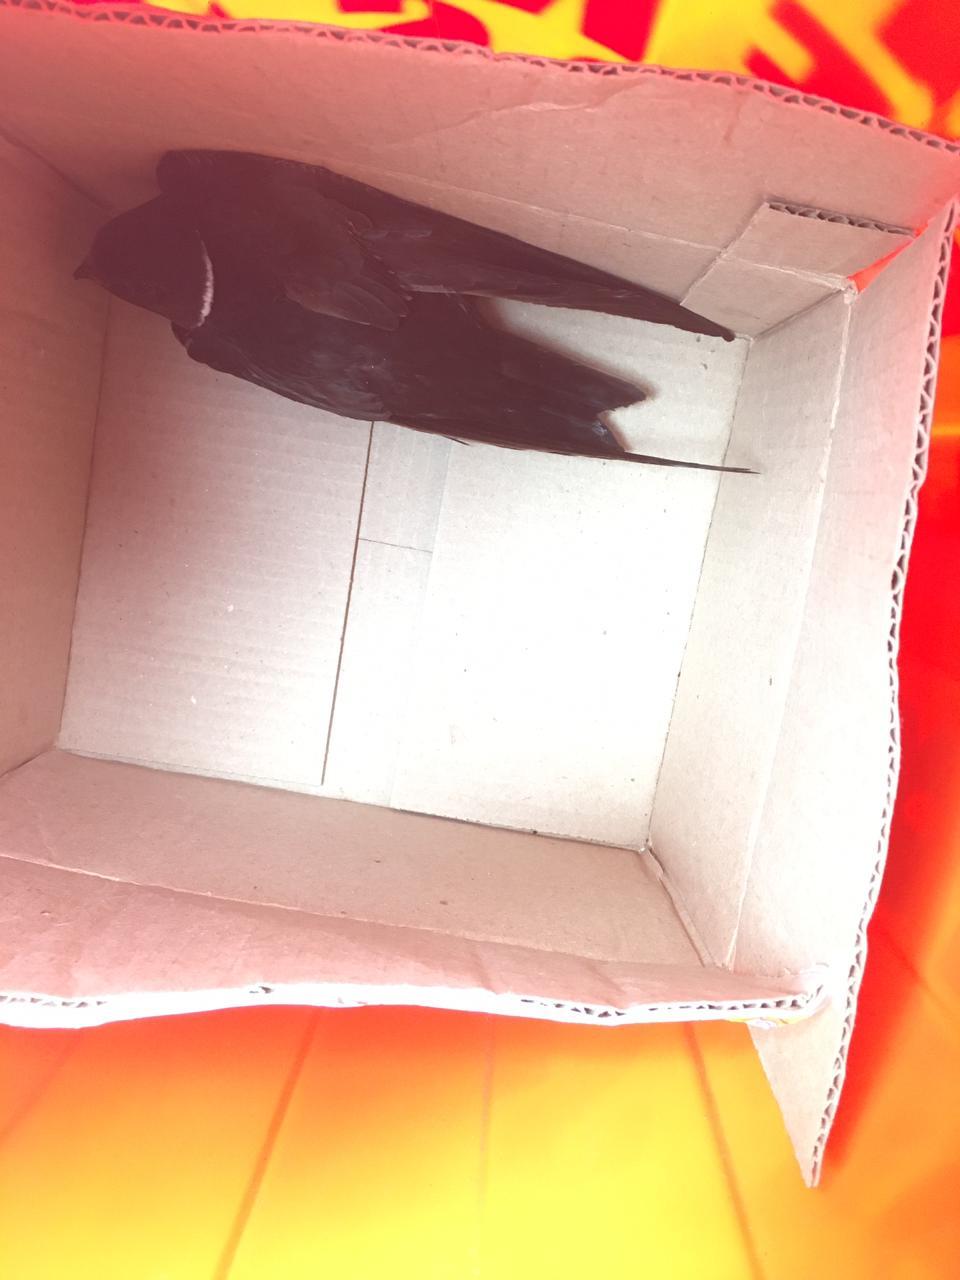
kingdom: Animalia
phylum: Chordata
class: Aves
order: Apodiformes
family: Apodidae
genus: Streptoprocne
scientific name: Streptoprocne zonaris
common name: White-collared swift
